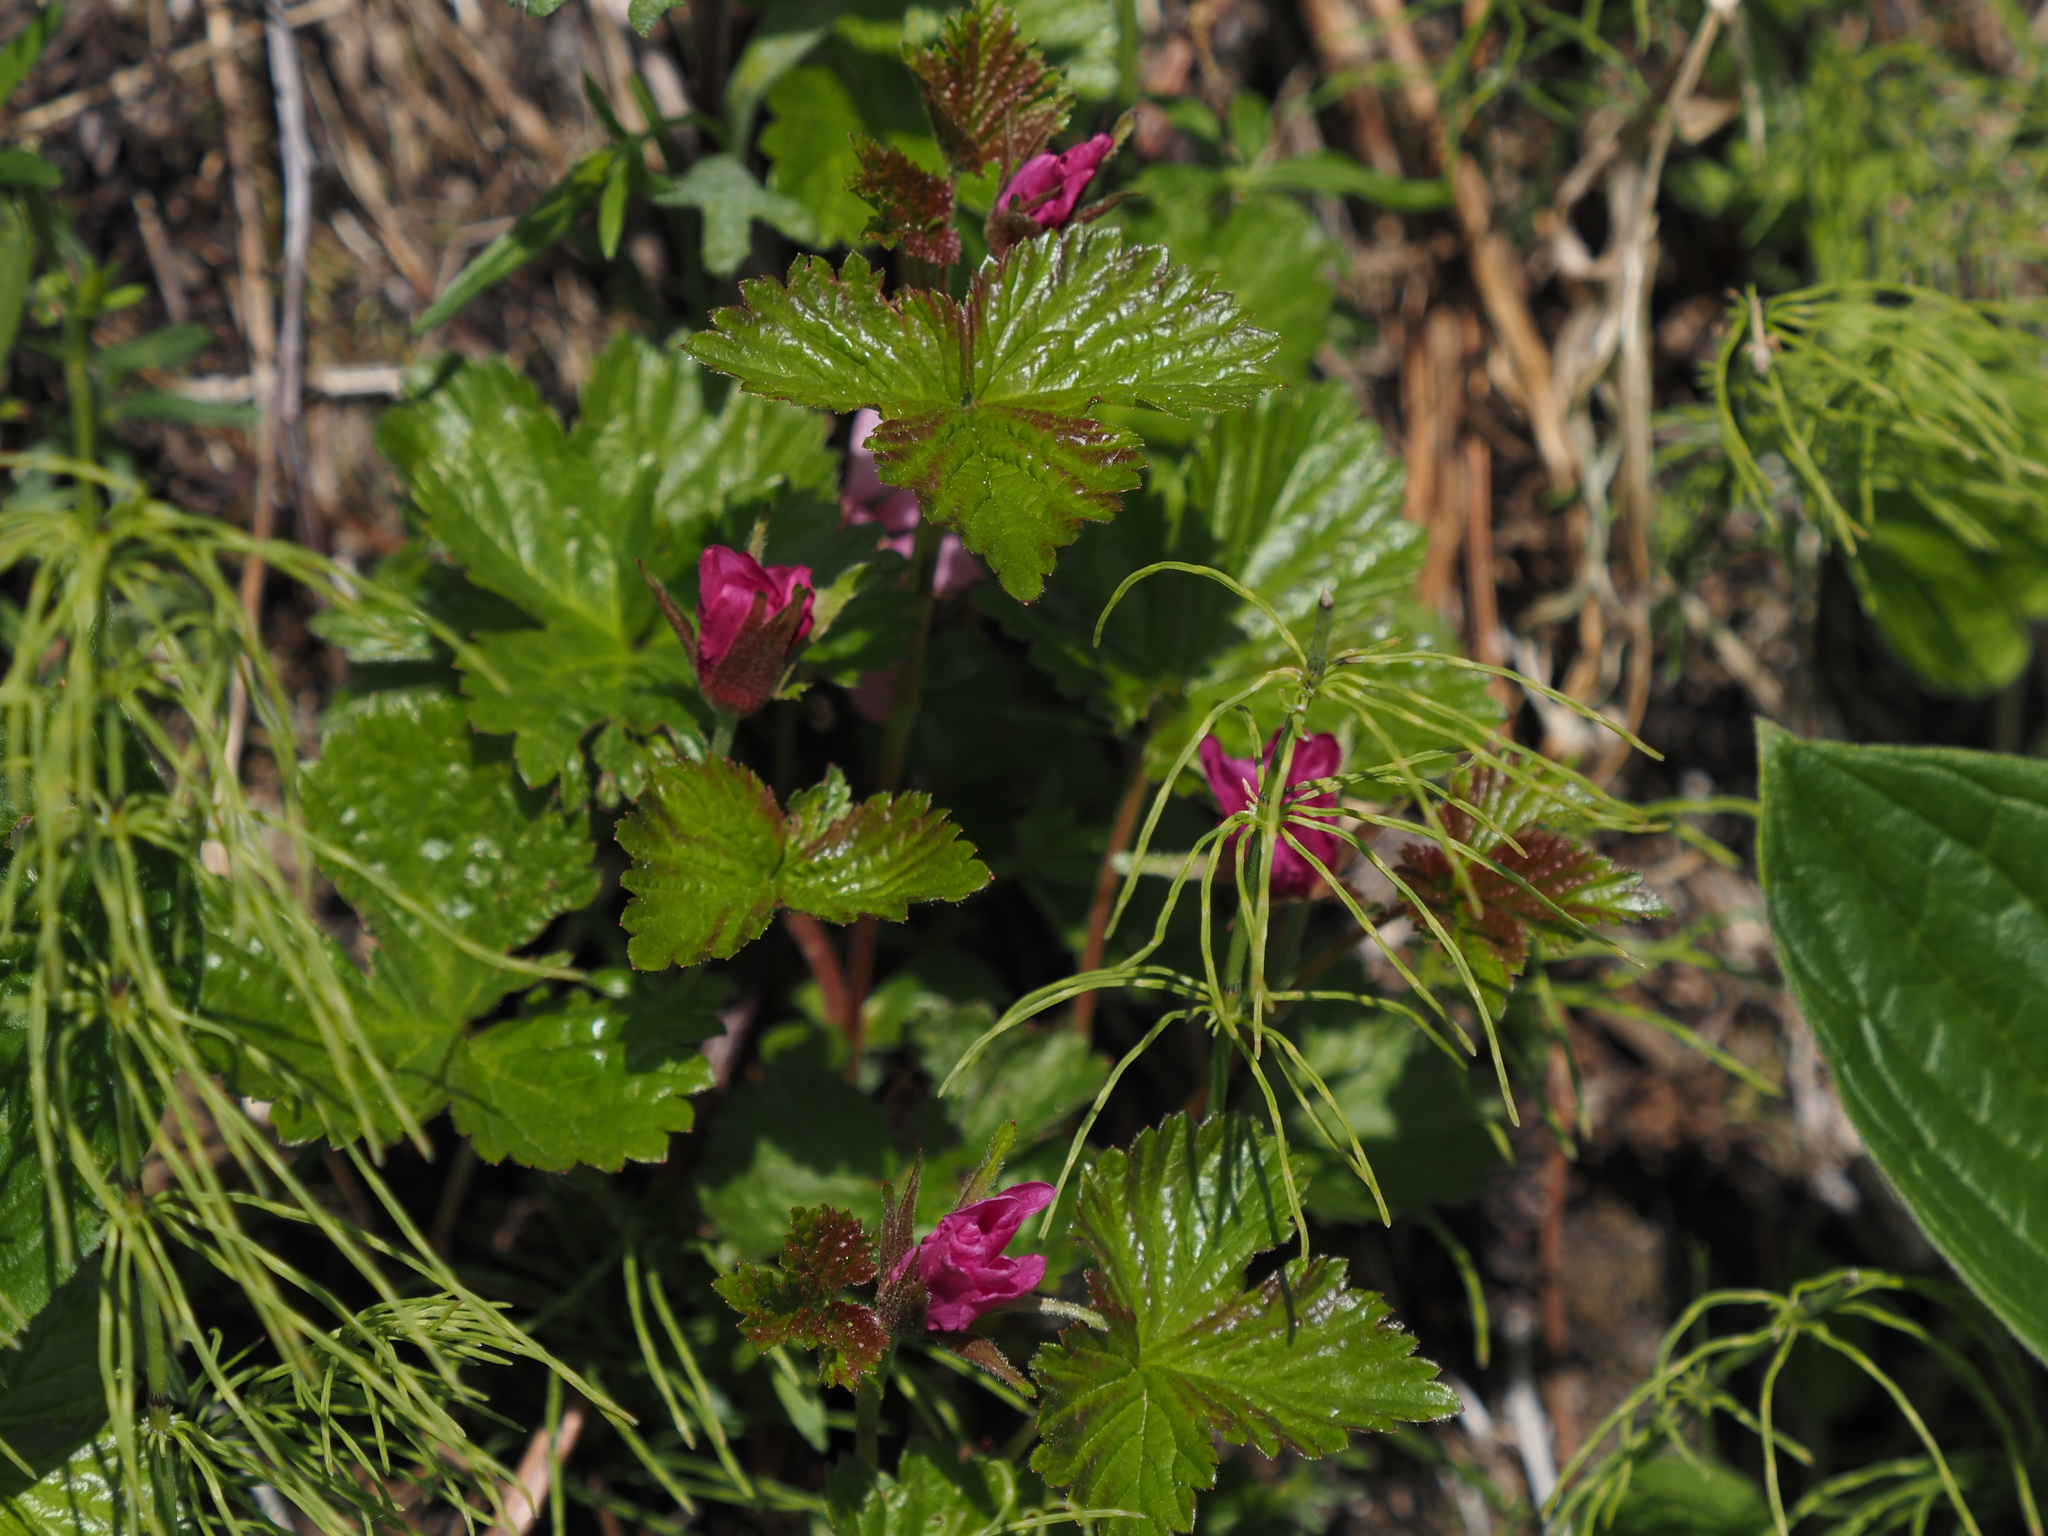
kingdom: Plantae
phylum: Tracheophyta
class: Magnoliopsida
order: Rosales
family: Rosaceae
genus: Rubus
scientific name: Rubus arcticus
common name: Arctic bramble
